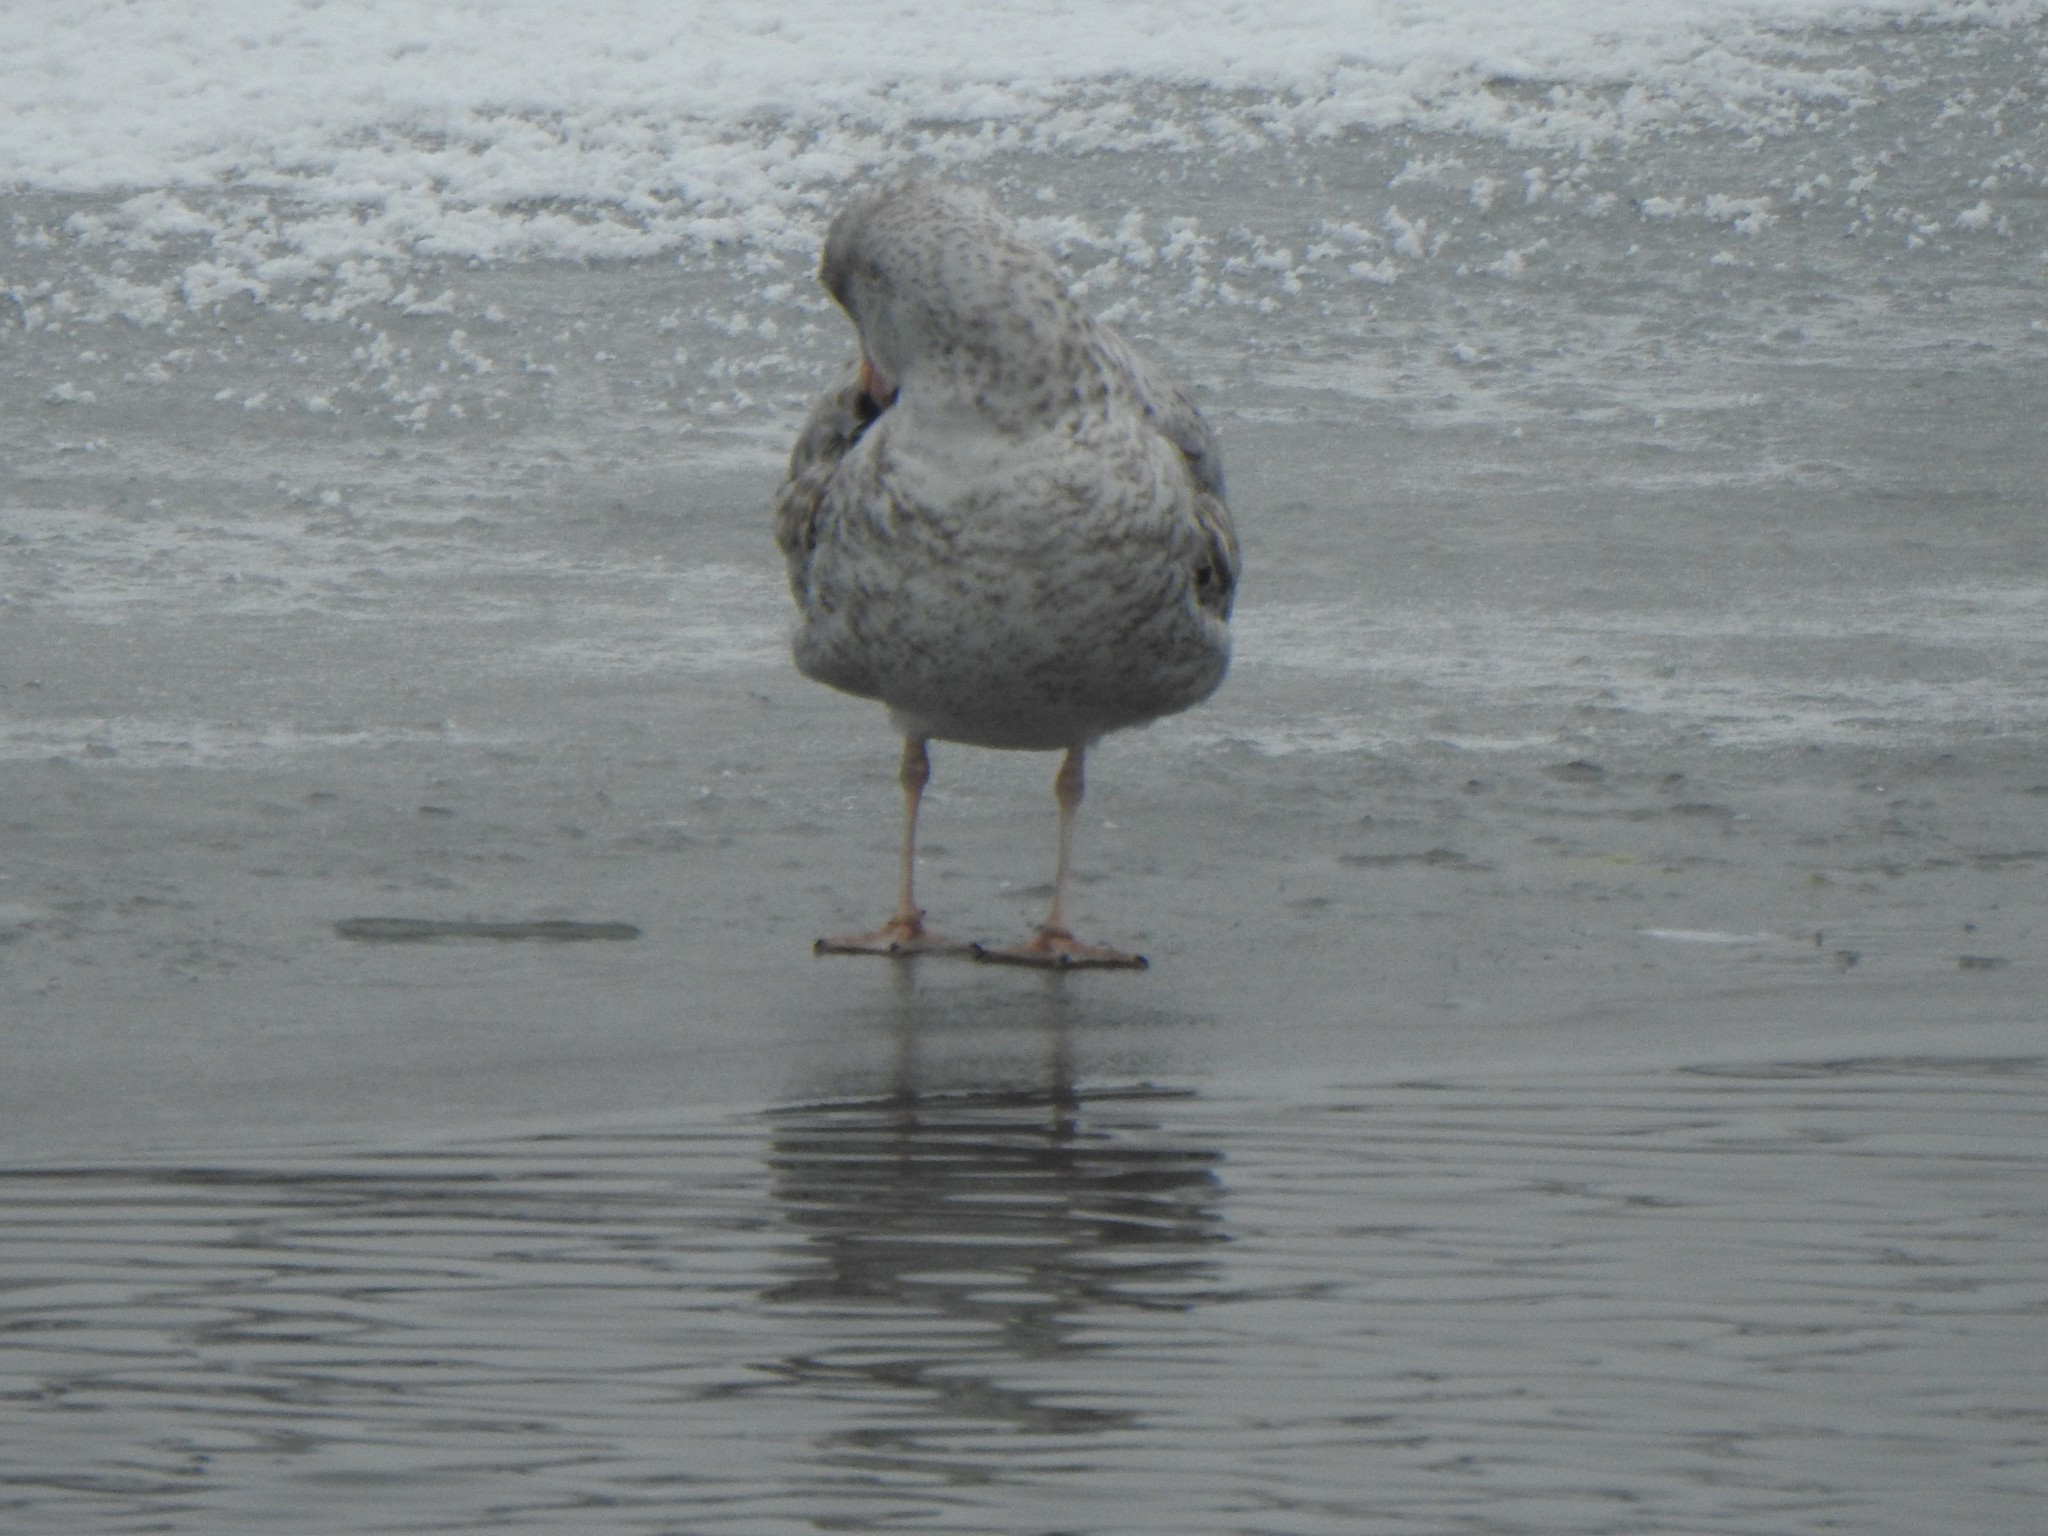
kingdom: Animalia
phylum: Chordata
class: Aves
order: Charadriiformes
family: Laridae
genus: Larus
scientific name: Larus delawarensis
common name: Ring-billed gull
